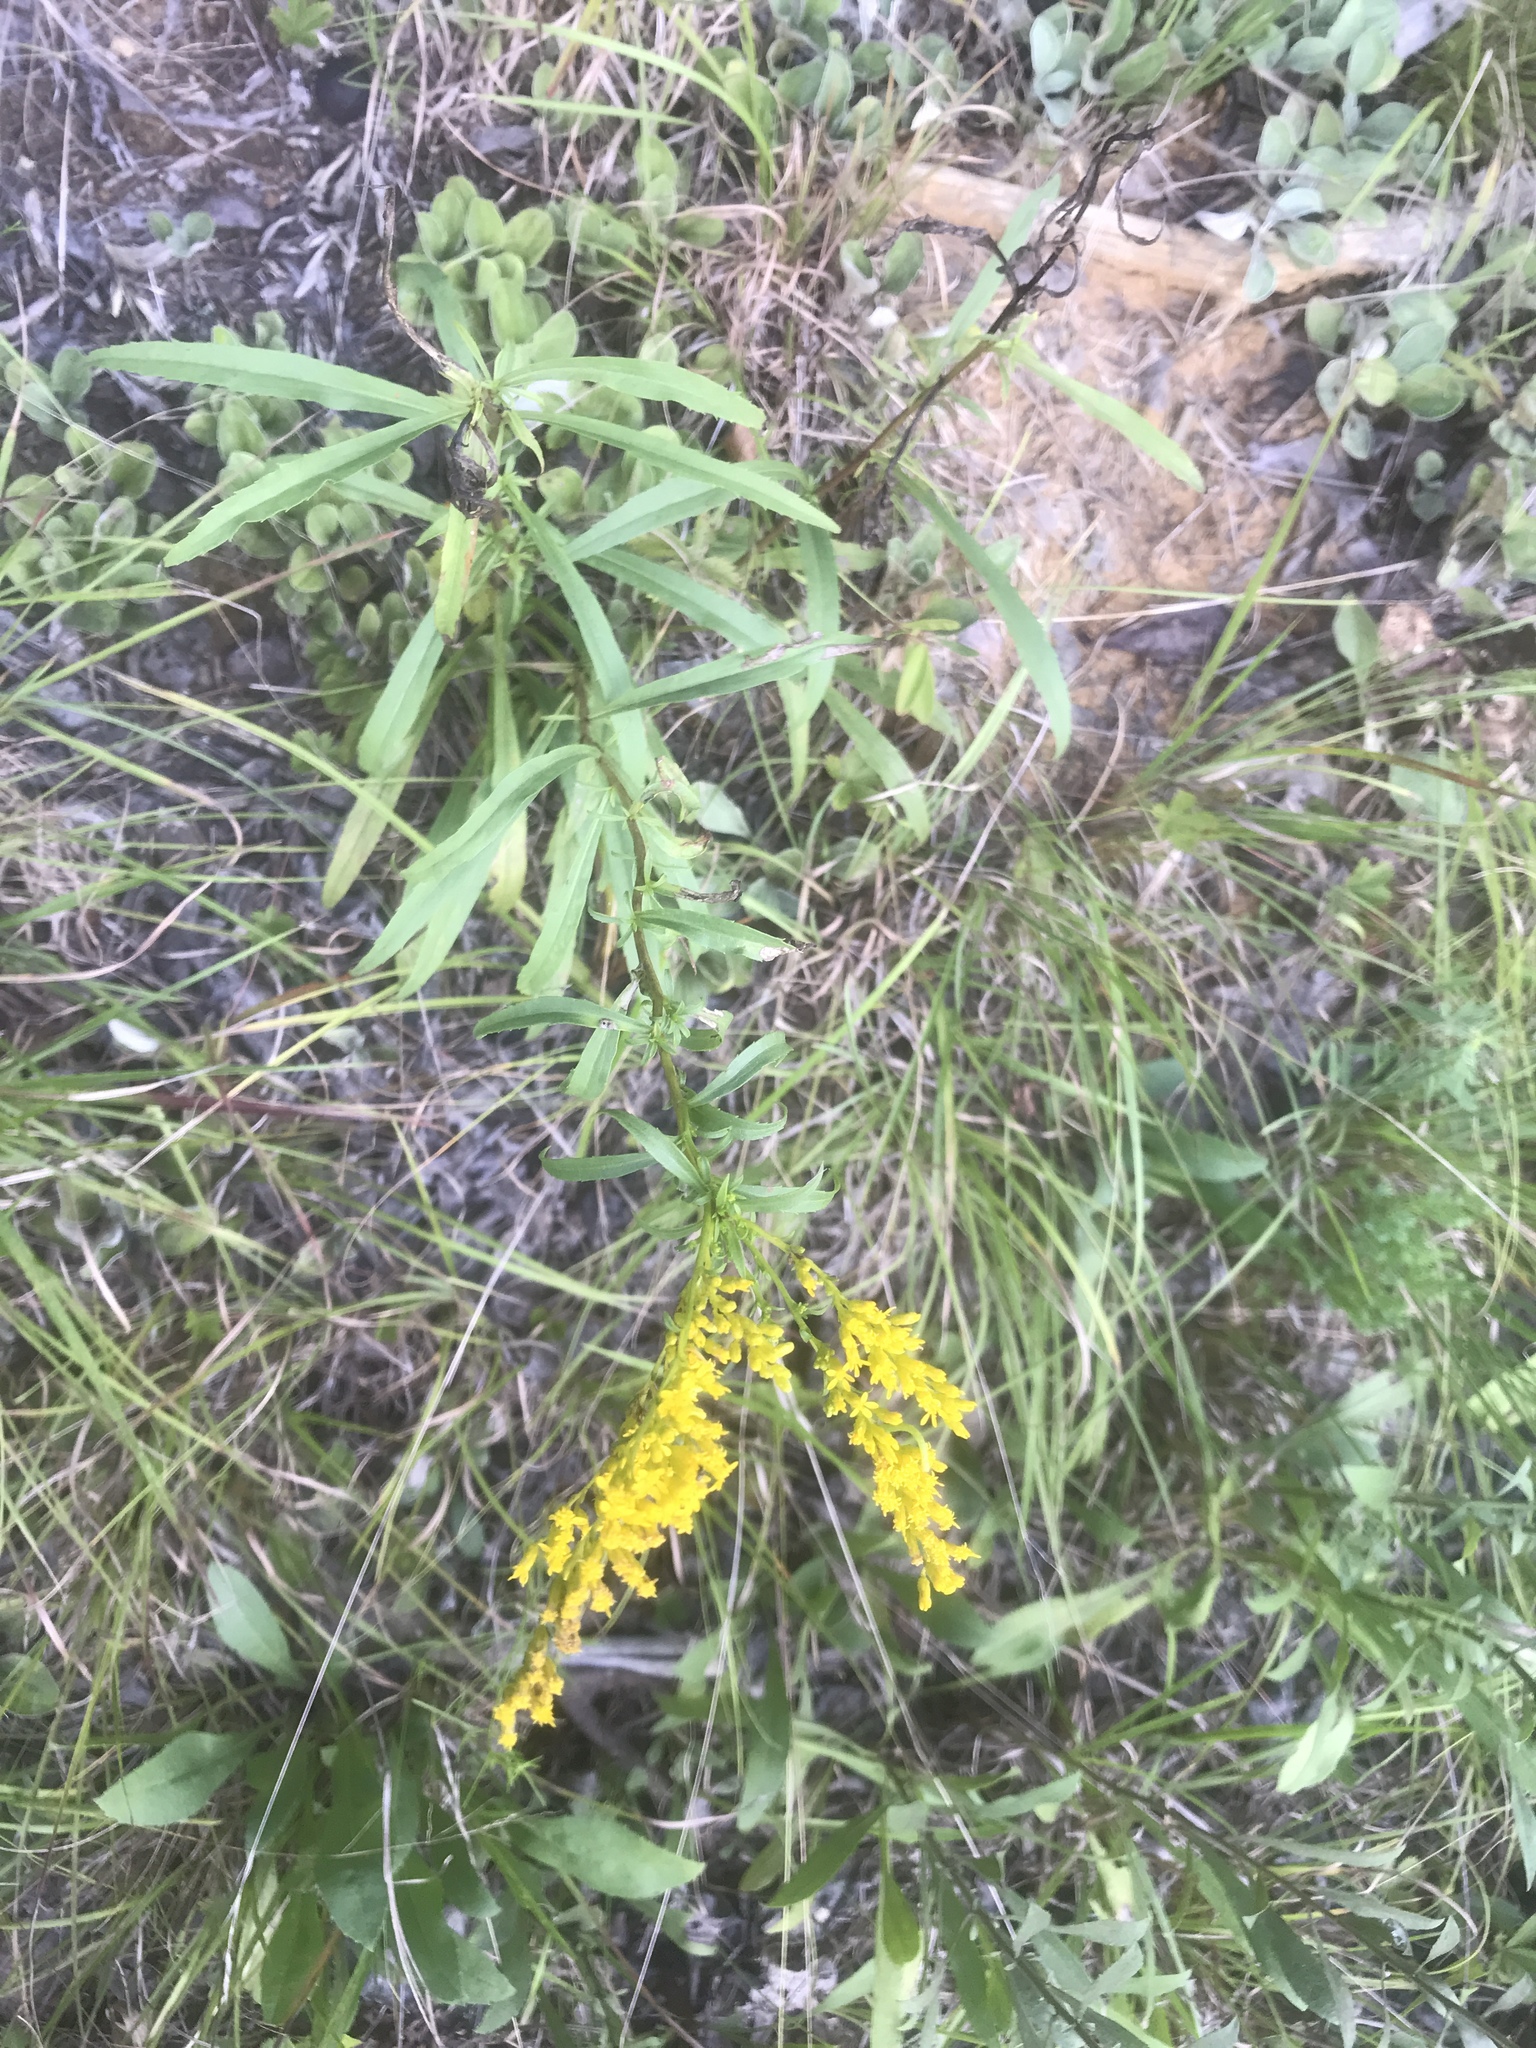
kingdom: Plantae
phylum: Tracheophyta
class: Magnoliopsida
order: Asterales
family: Asteraceae
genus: Solidago
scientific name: Solidago pinetorum
